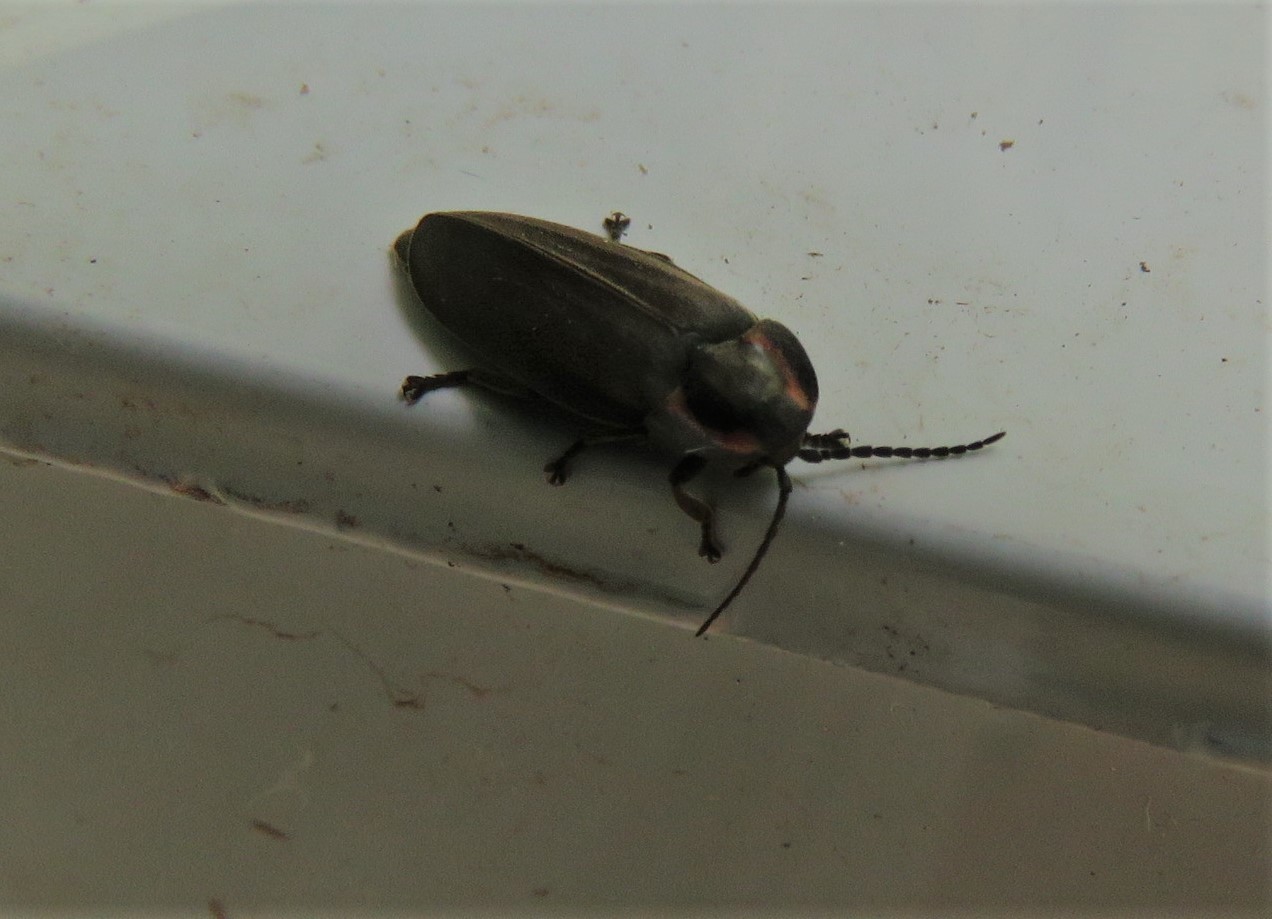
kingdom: Animalia
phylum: Arthropoda
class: Insecta
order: Coleoptera
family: Lampyridae
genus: Photinus
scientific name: Photinus corrusca
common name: Winter firefly
